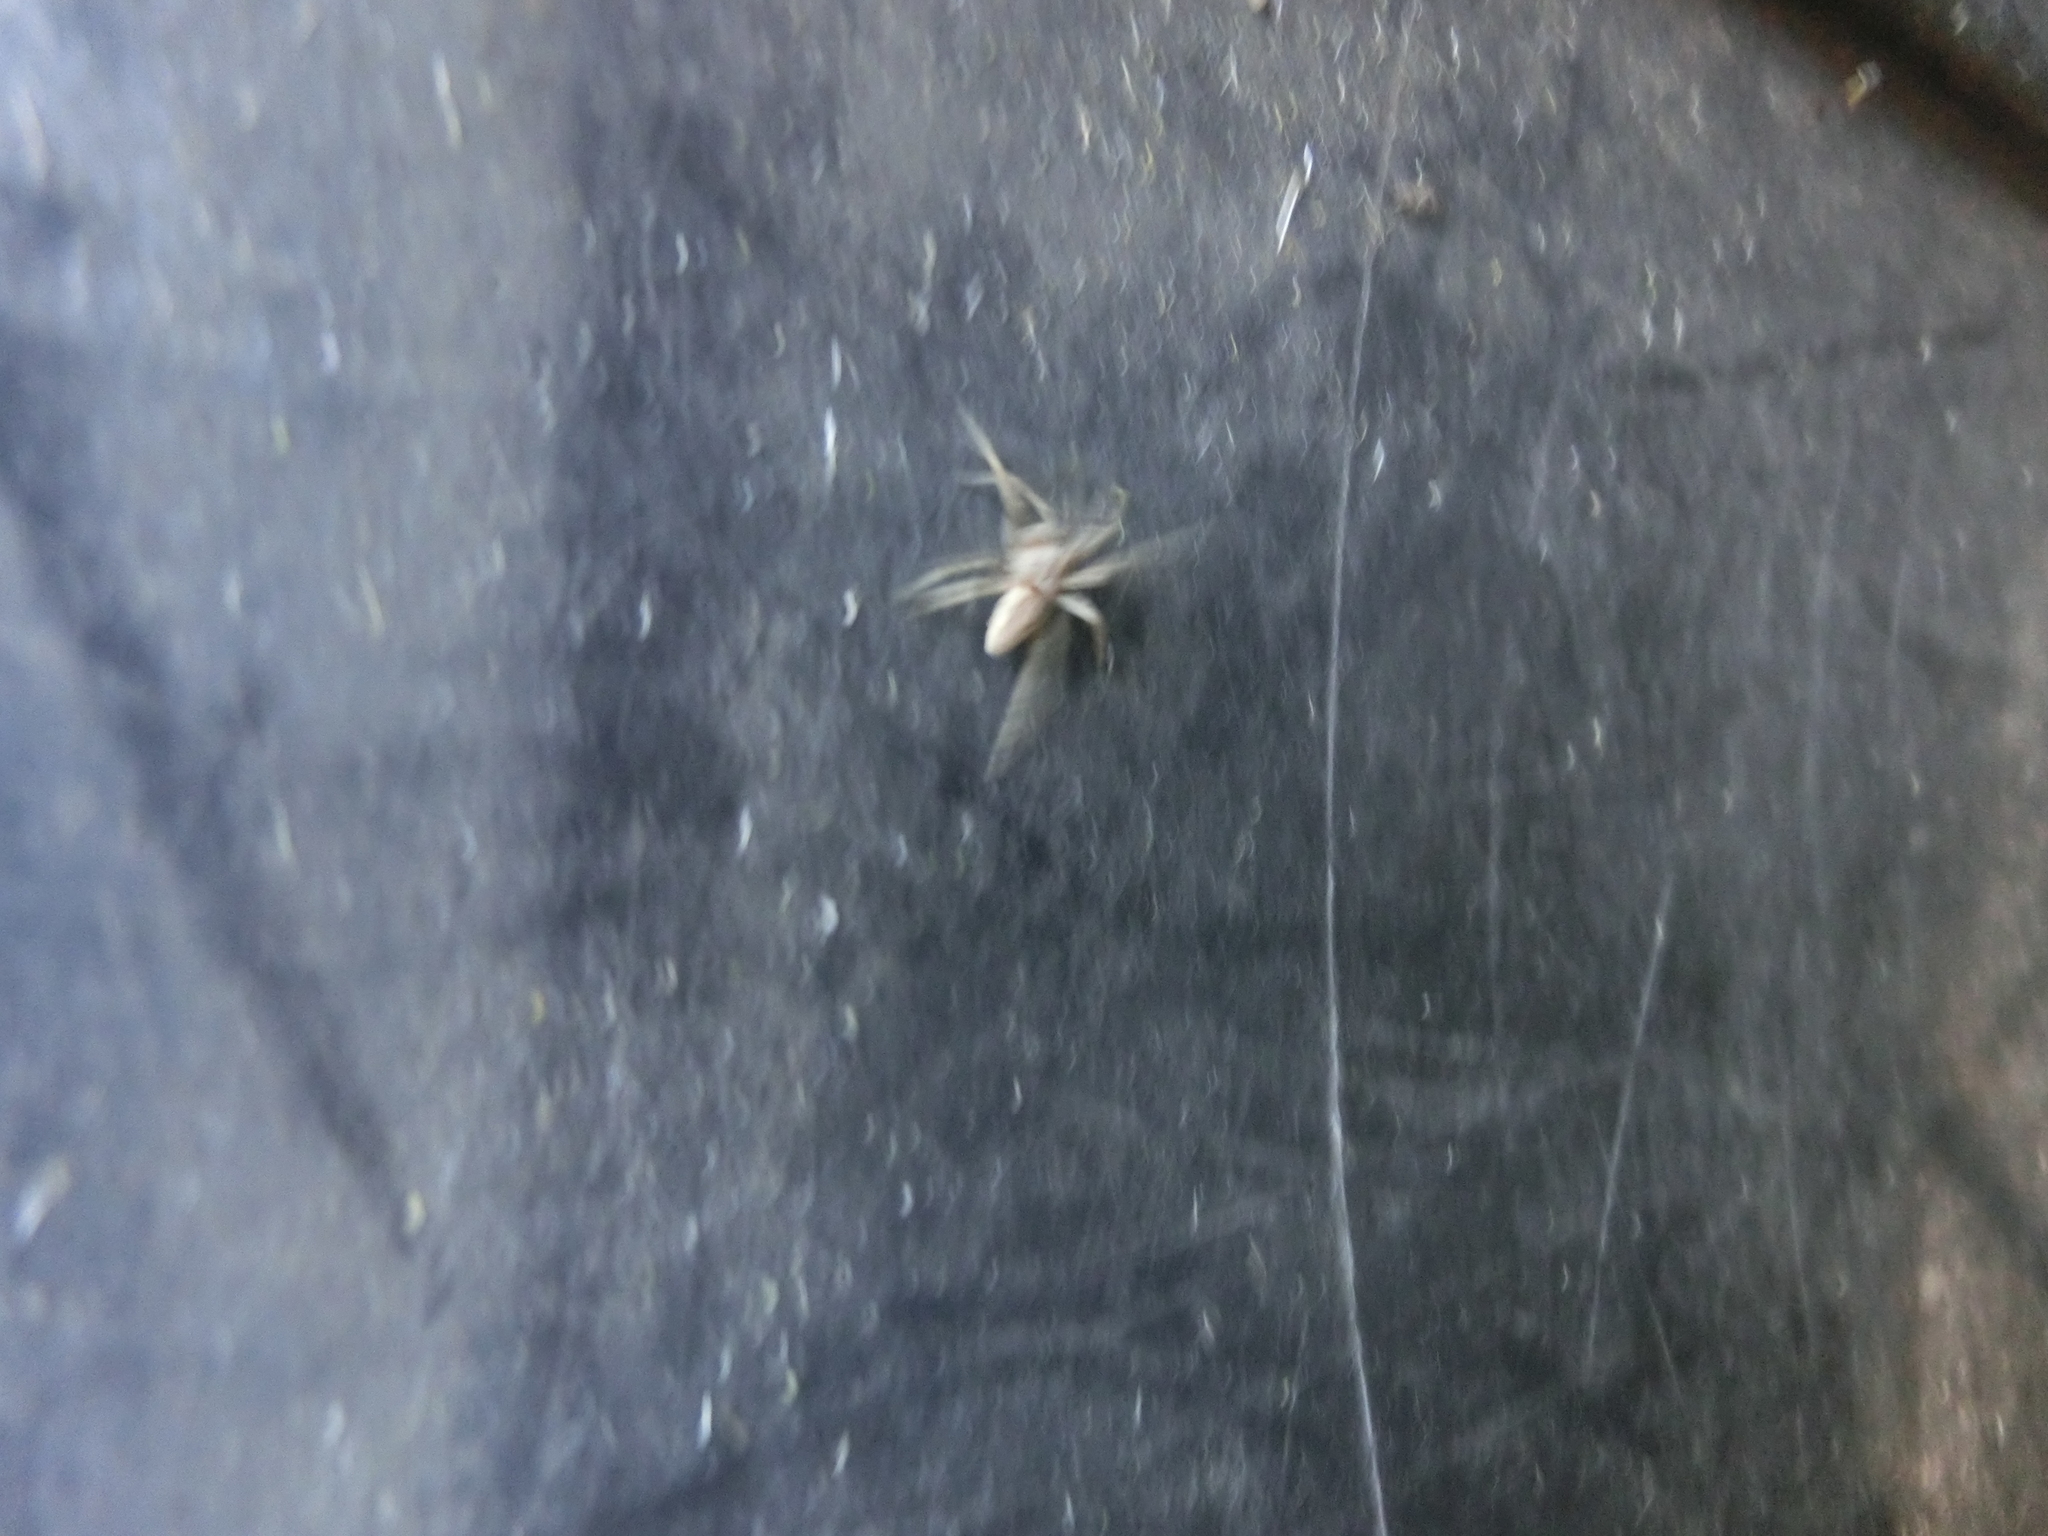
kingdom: Animalia
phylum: Arthropoda
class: Arachnida
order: Araneae
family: Pisauridae
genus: Pisaura
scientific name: Pisaura mirabilis
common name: Tent spider
